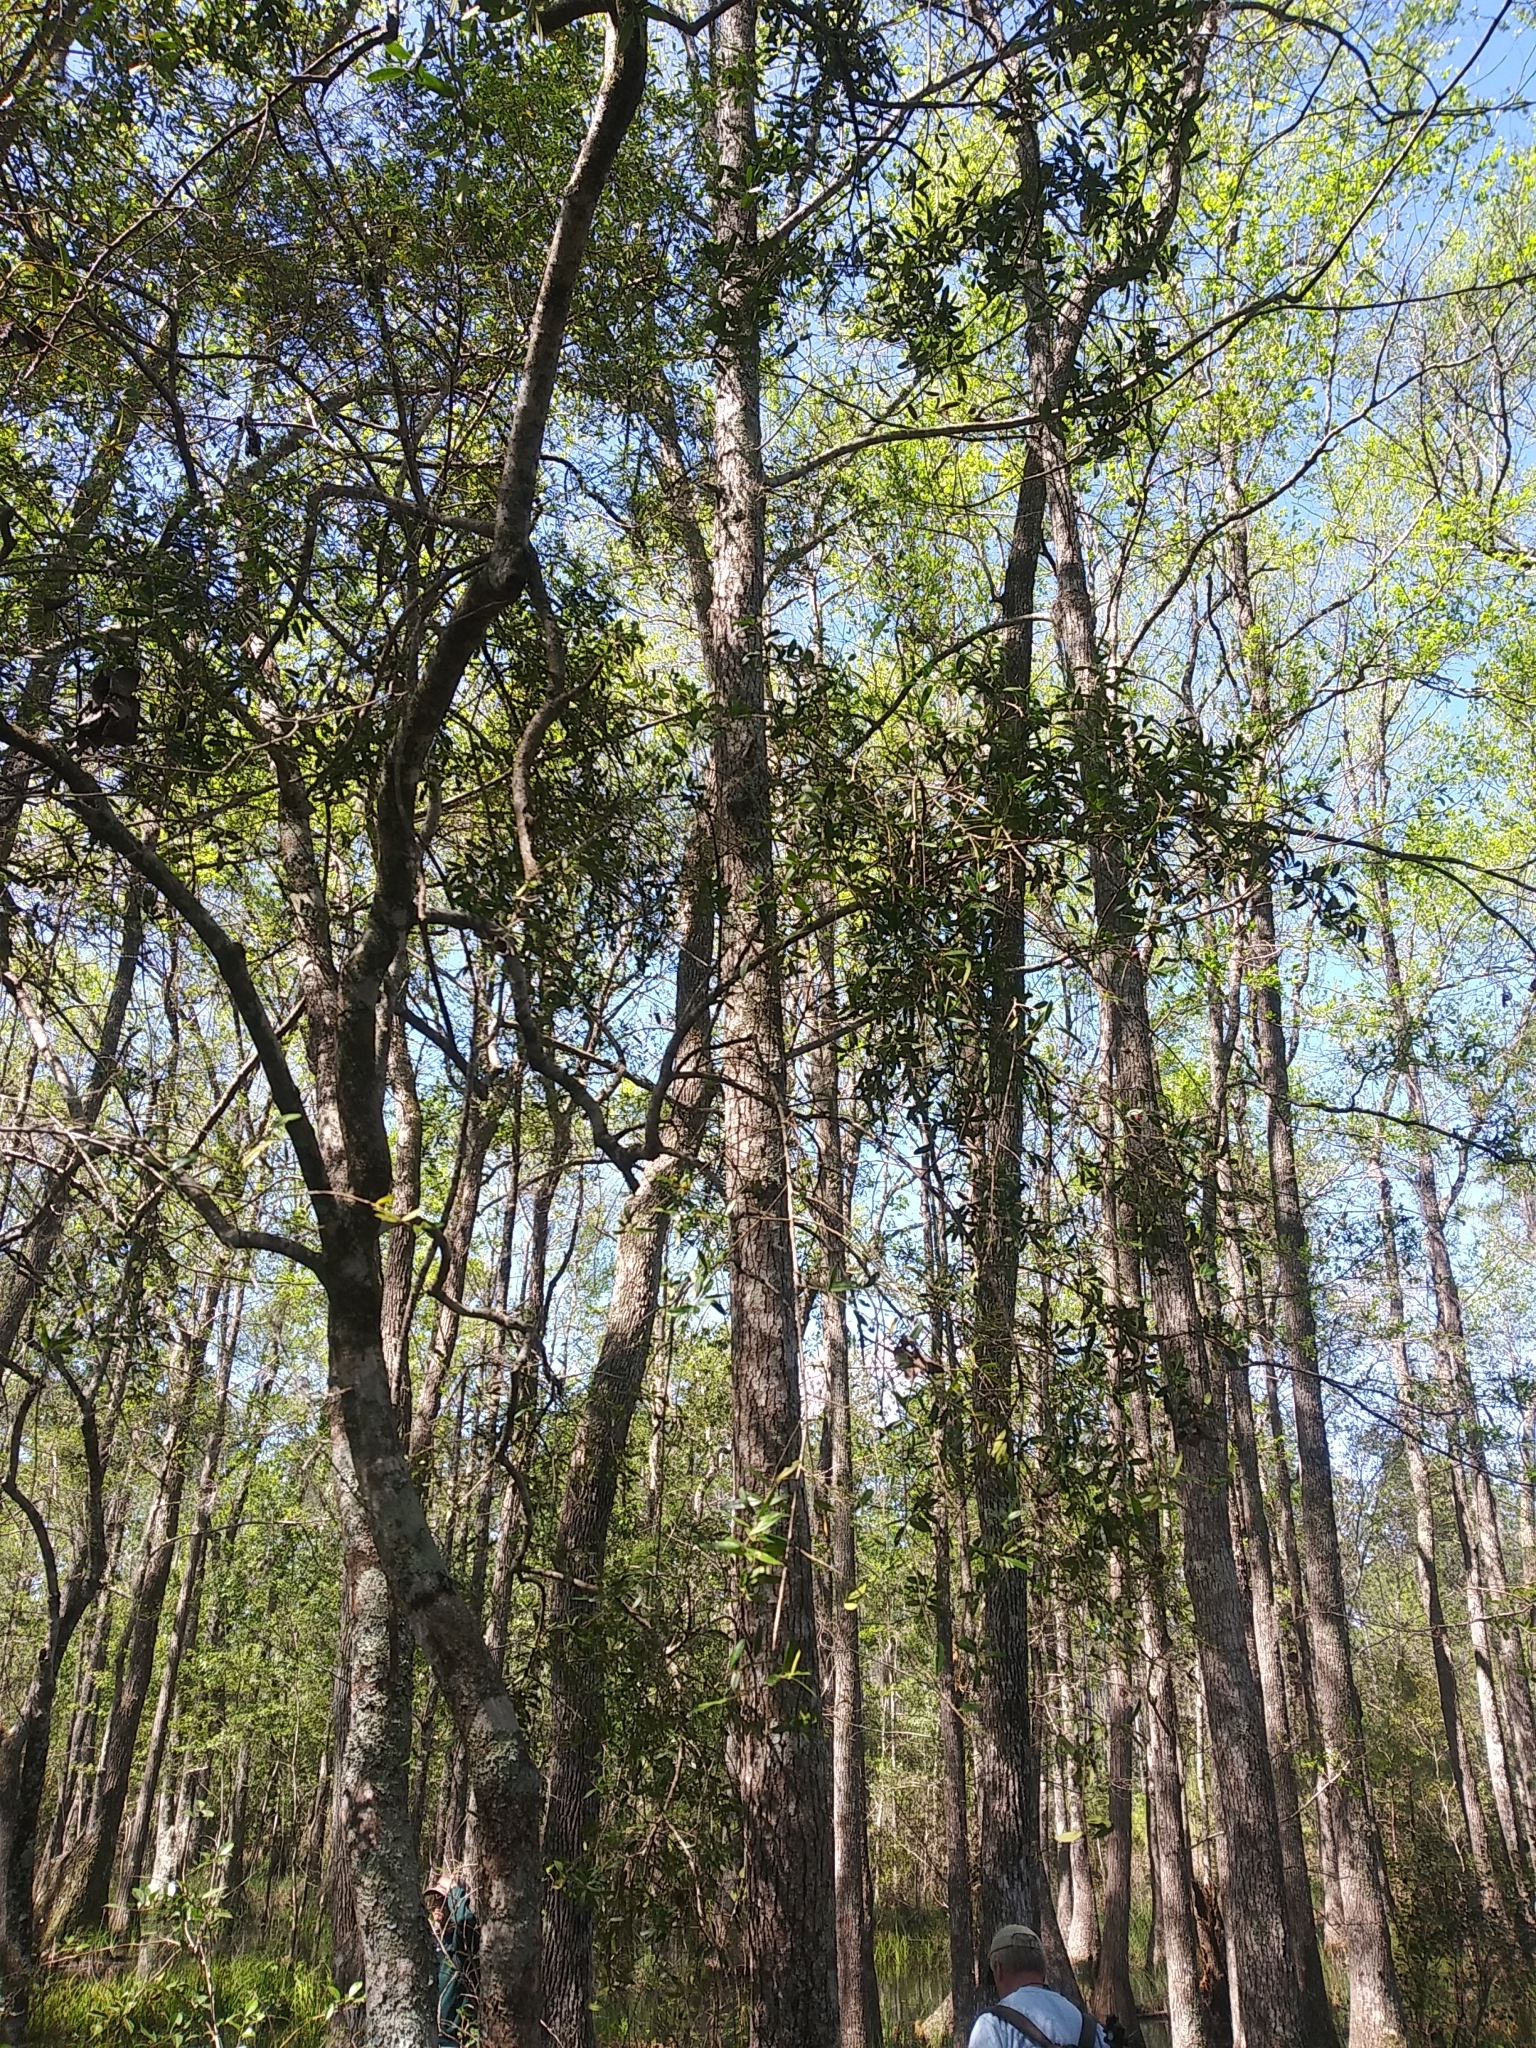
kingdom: Plantae
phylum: Tracheophyta
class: Magnoliopsida
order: Aquifoliales
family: Aquifoliaceae
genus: Ilex
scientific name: Ilex myrtifolia
